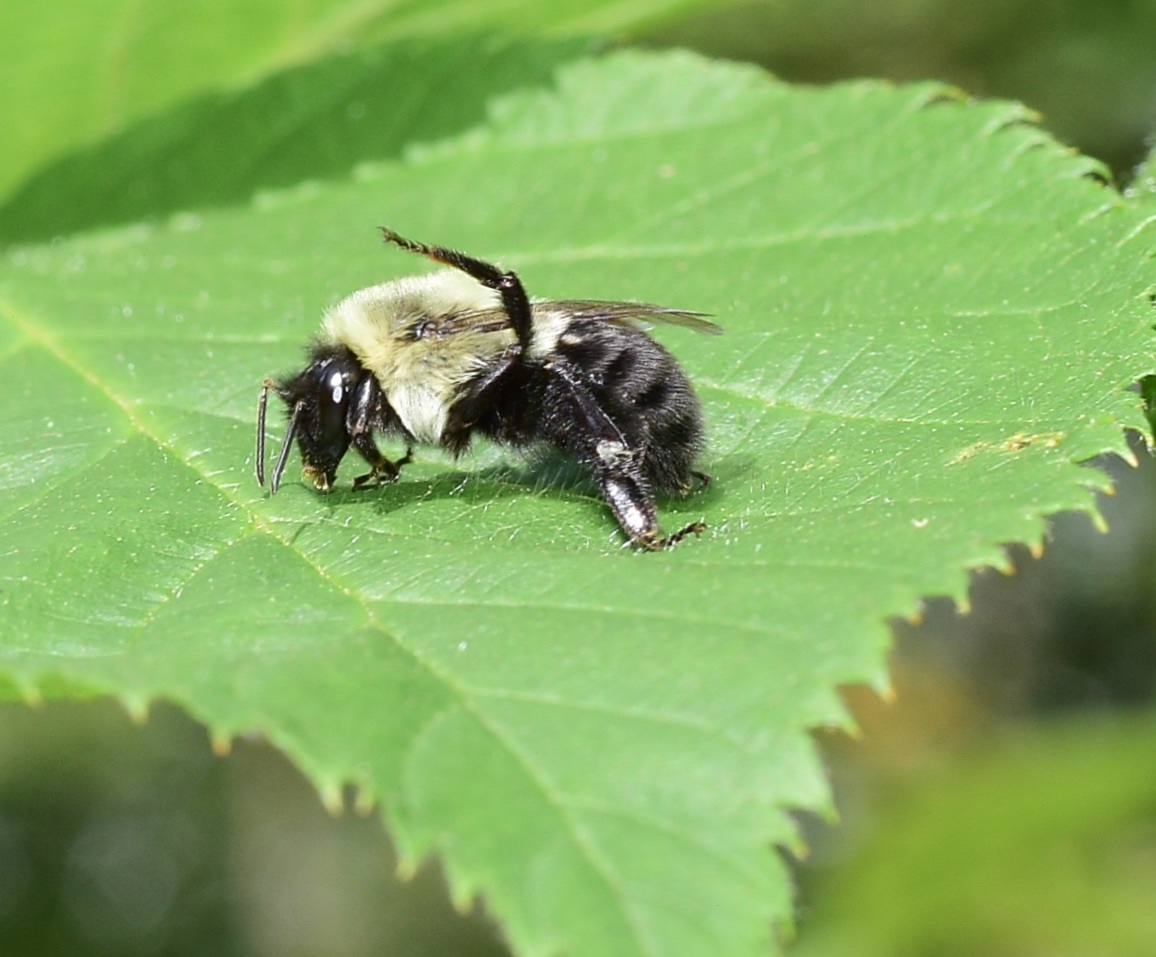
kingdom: Animalia
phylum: Arthropoda
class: Insecta
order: Hymenoptera
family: Apidae
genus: Bombus
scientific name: Bombus impatiens
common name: Common eastern bumble bee
